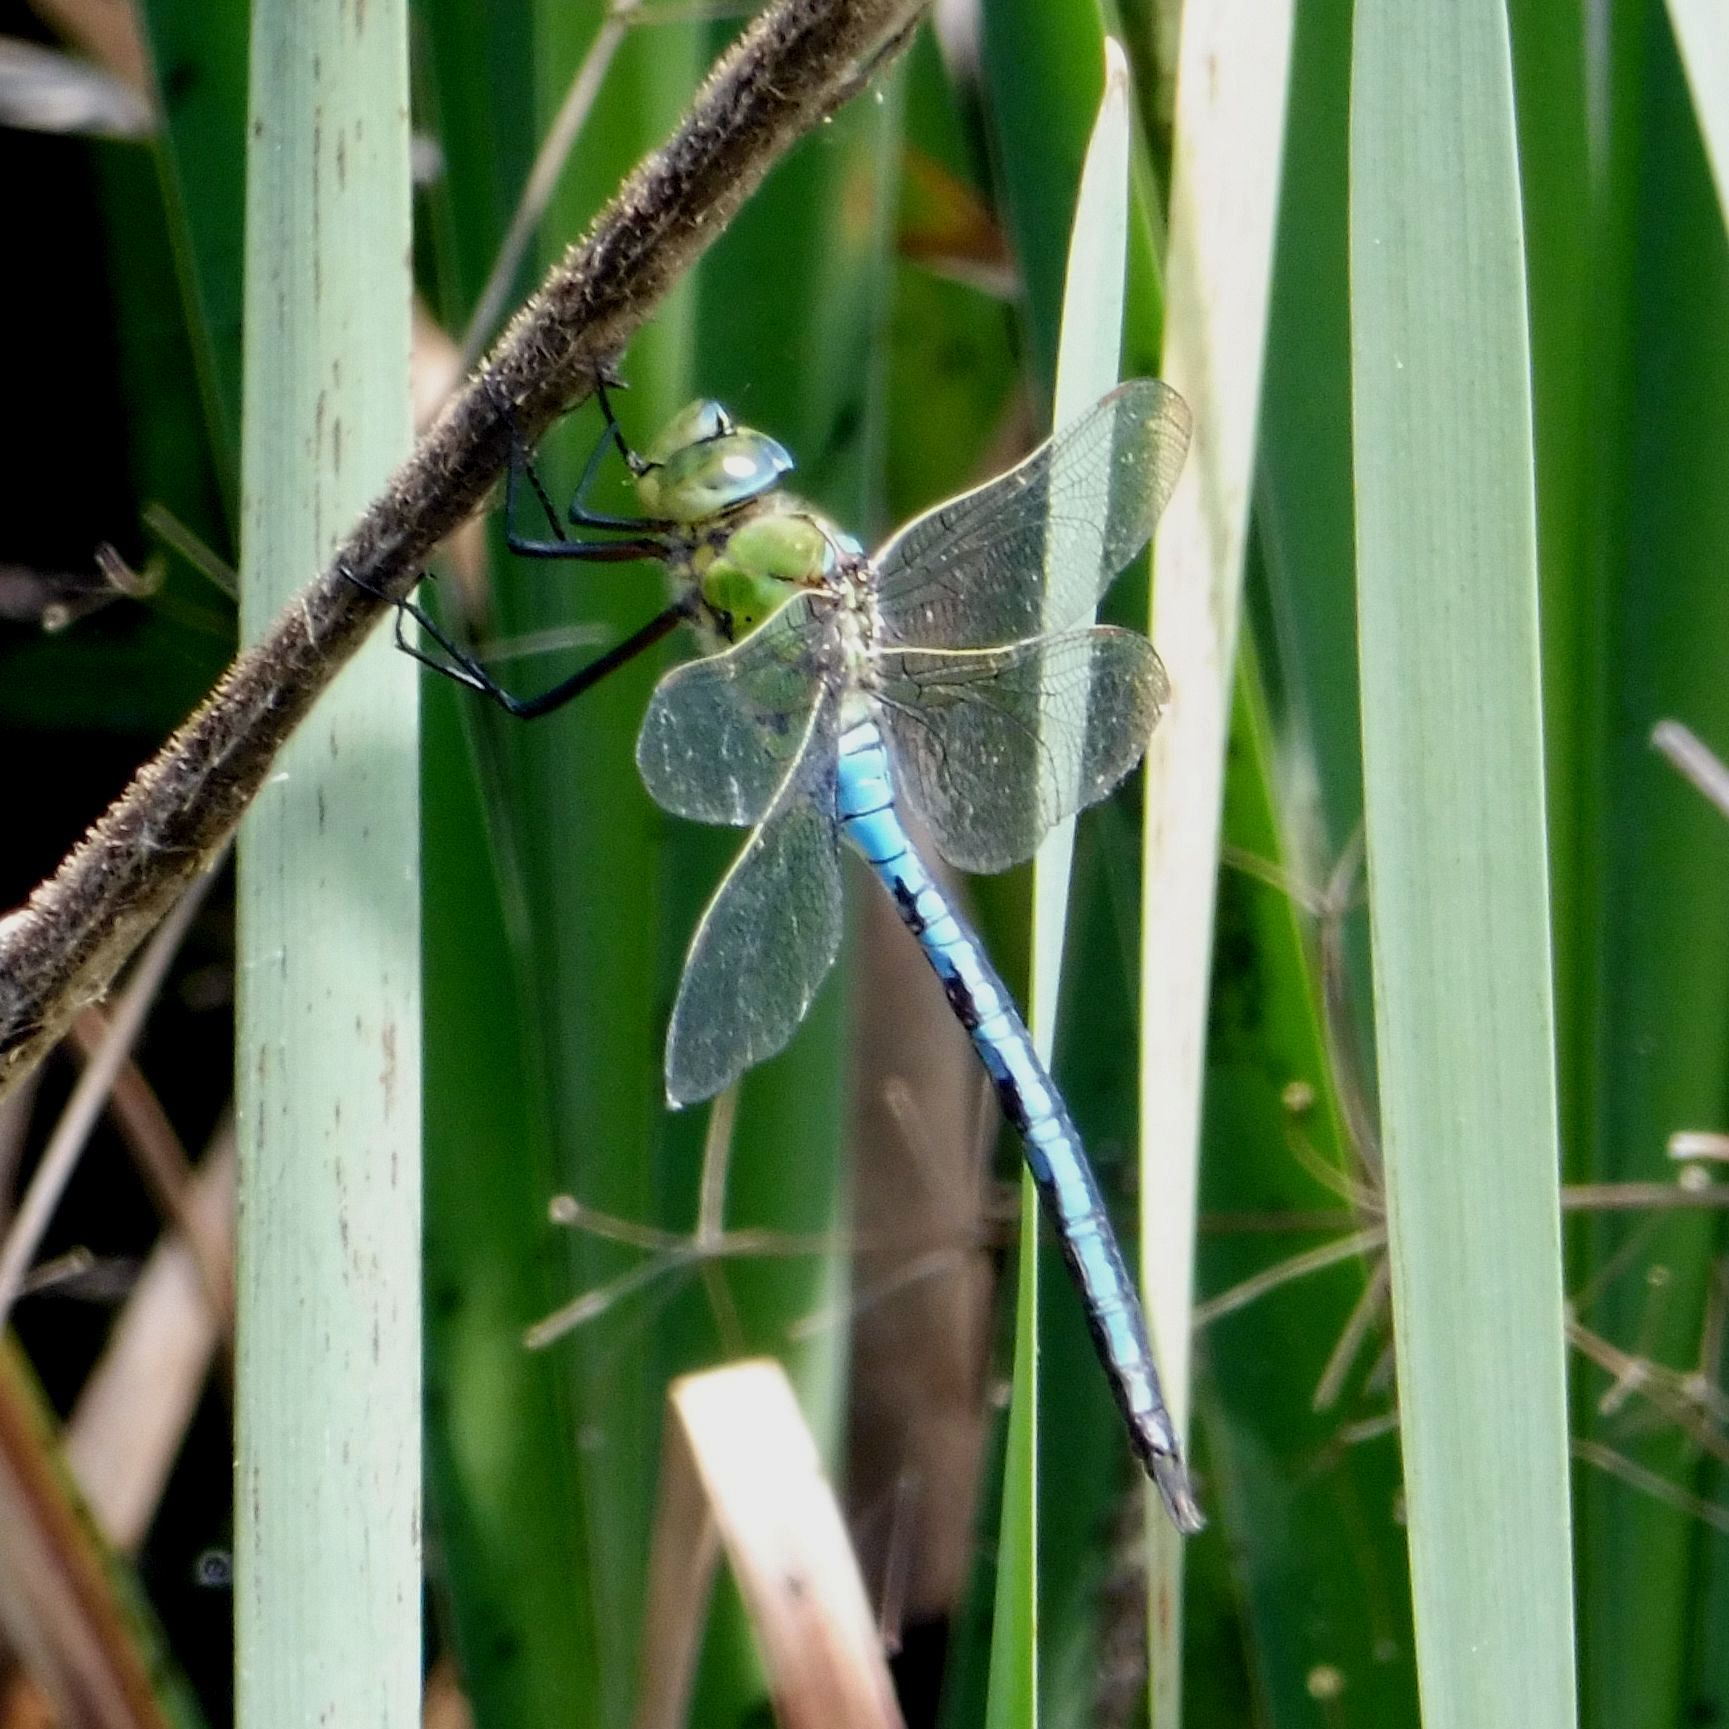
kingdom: Animalia
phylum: Arthropoda
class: Insecta
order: Odonata
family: Aeshnidae
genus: Anax
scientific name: Anax imperator
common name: Emperor dragonfly
